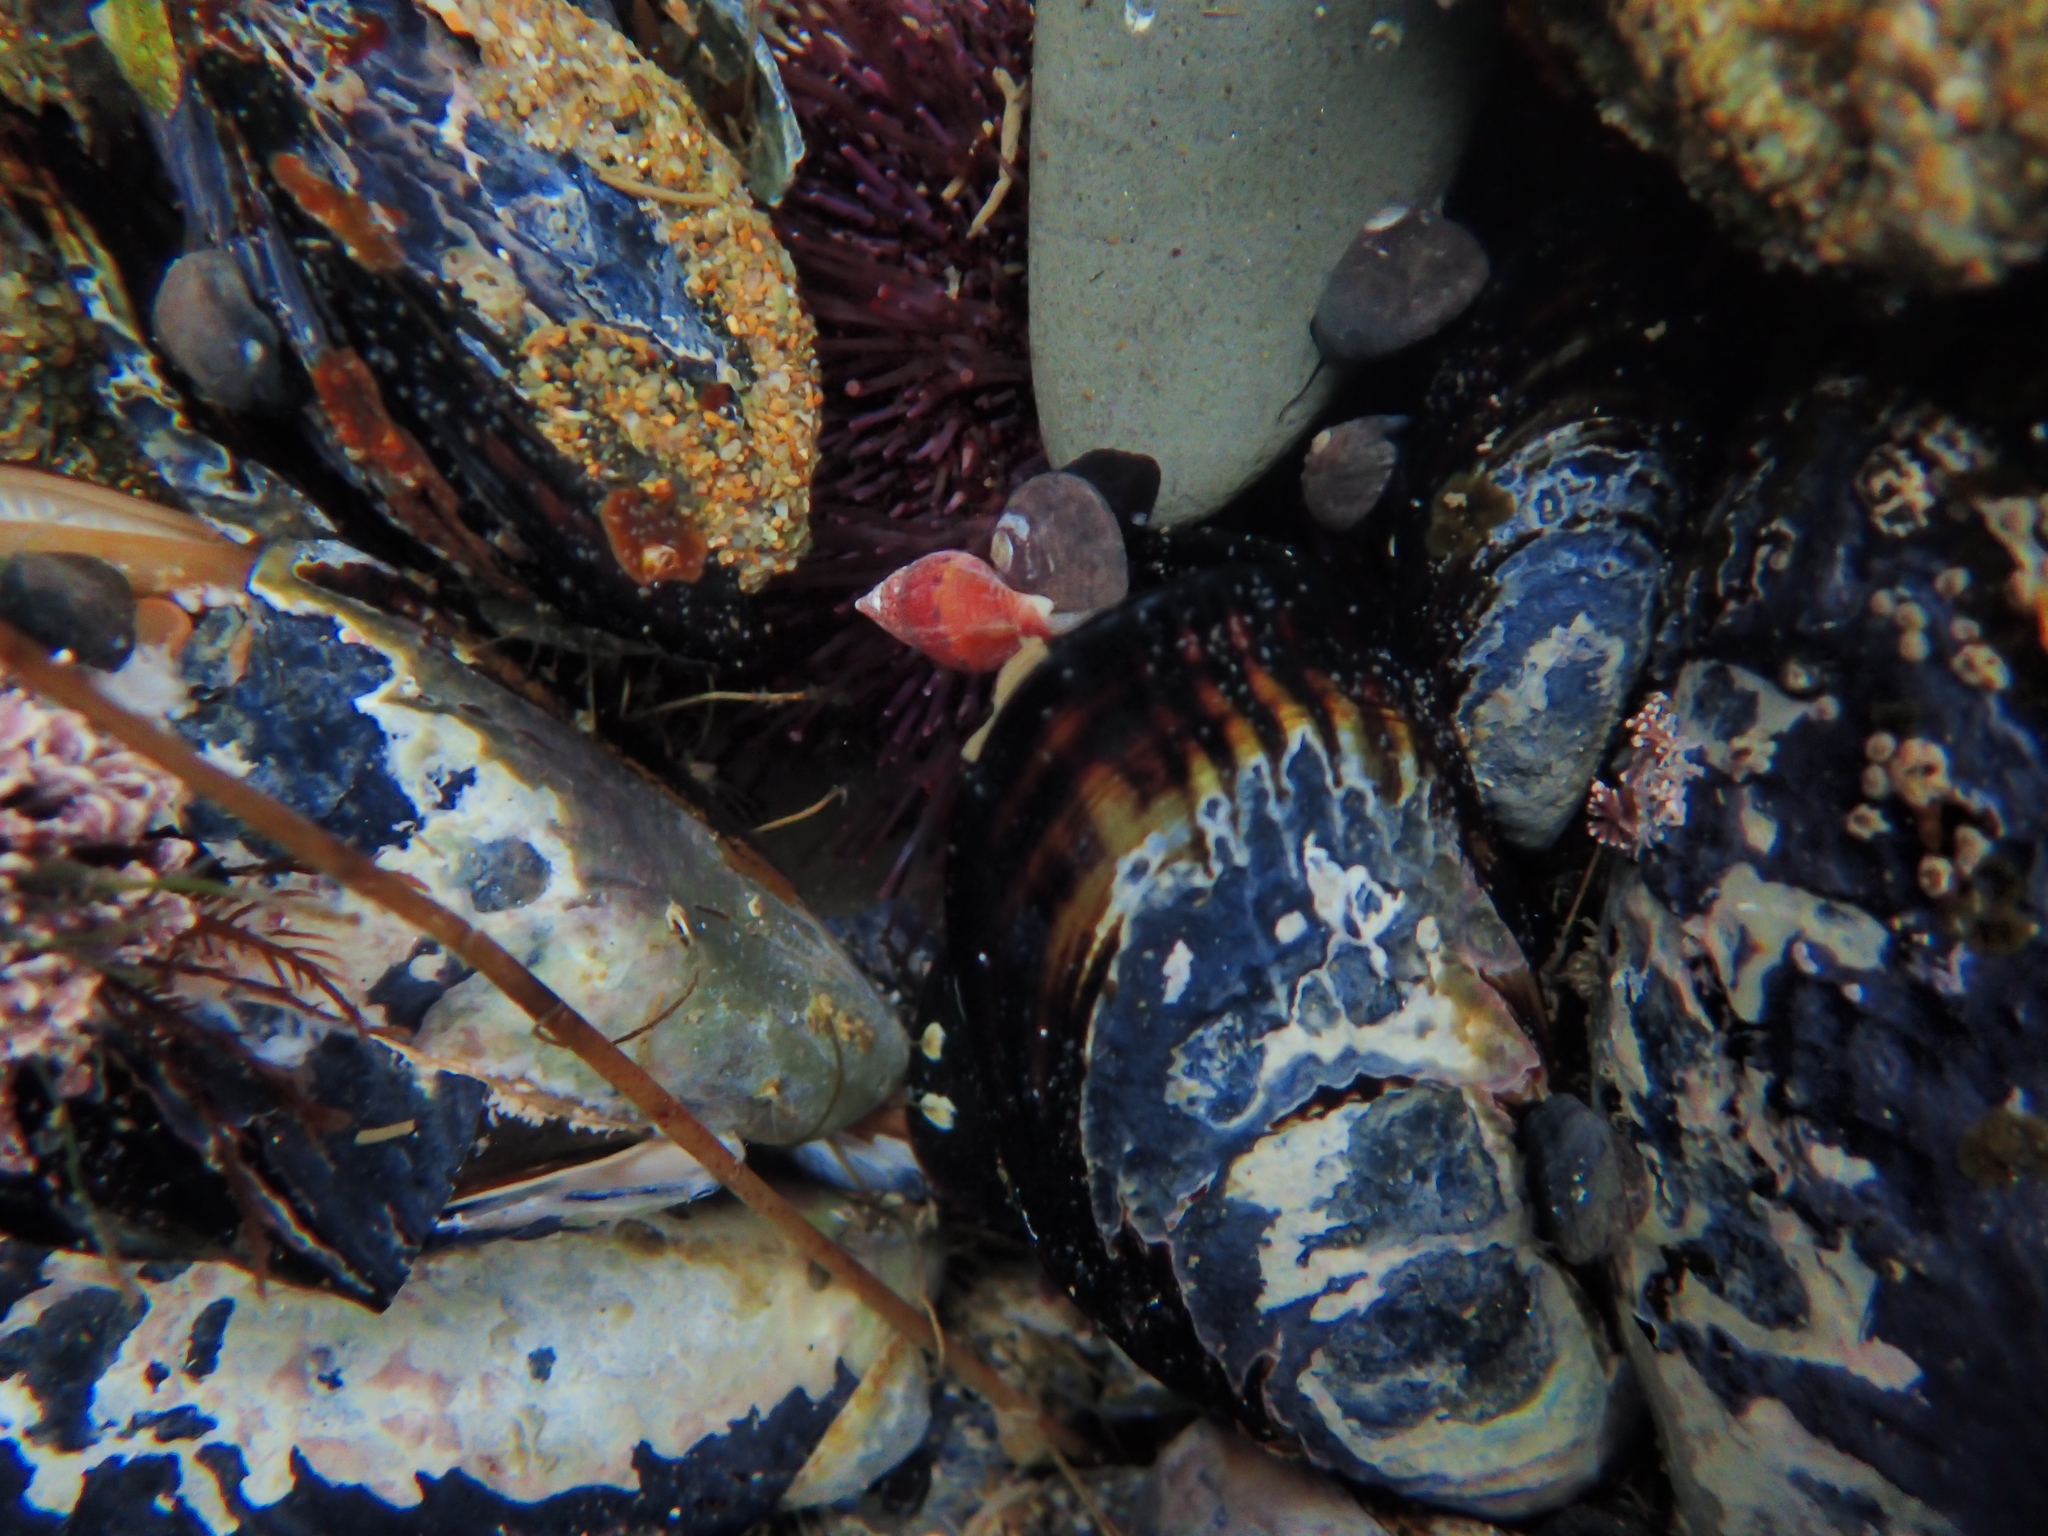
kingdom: Animalia
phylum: Mollusca
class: Bivalvia
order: Mytilida
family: Mytilidae
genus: Mytilus
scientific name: Mytilus californianus
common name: California mussel
